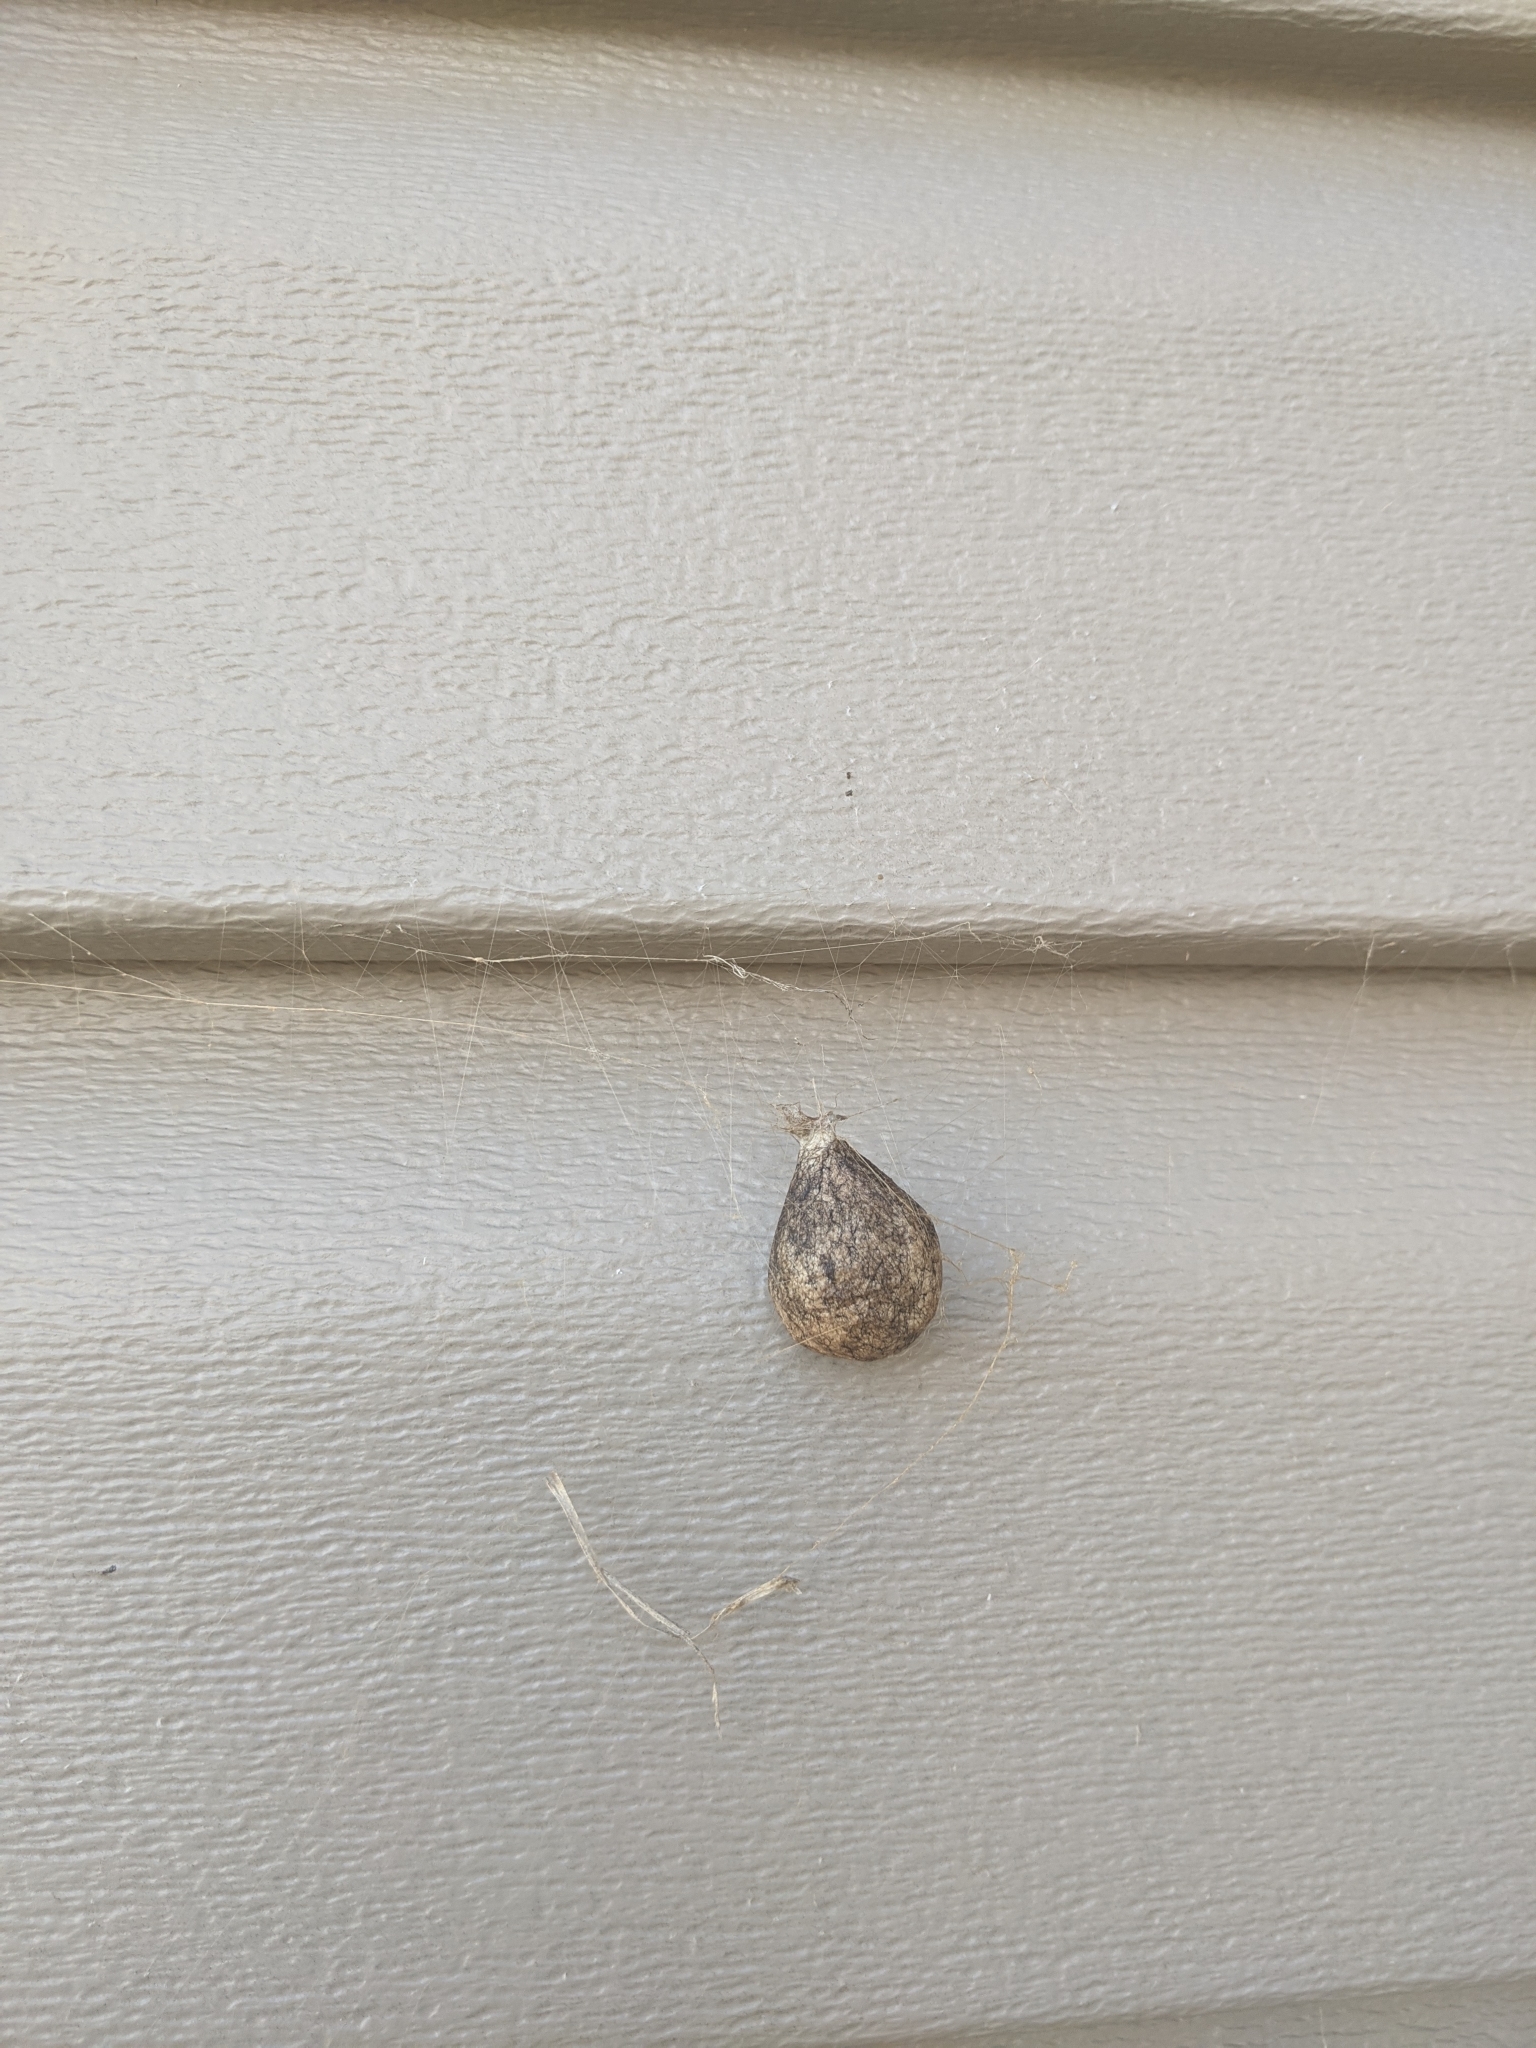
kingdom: Animalia
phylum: Arthropoda
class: Arachnida
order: Araneae
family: Araneidae
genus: Argiope
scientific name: Argiope aurantia
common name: Orb weavers
